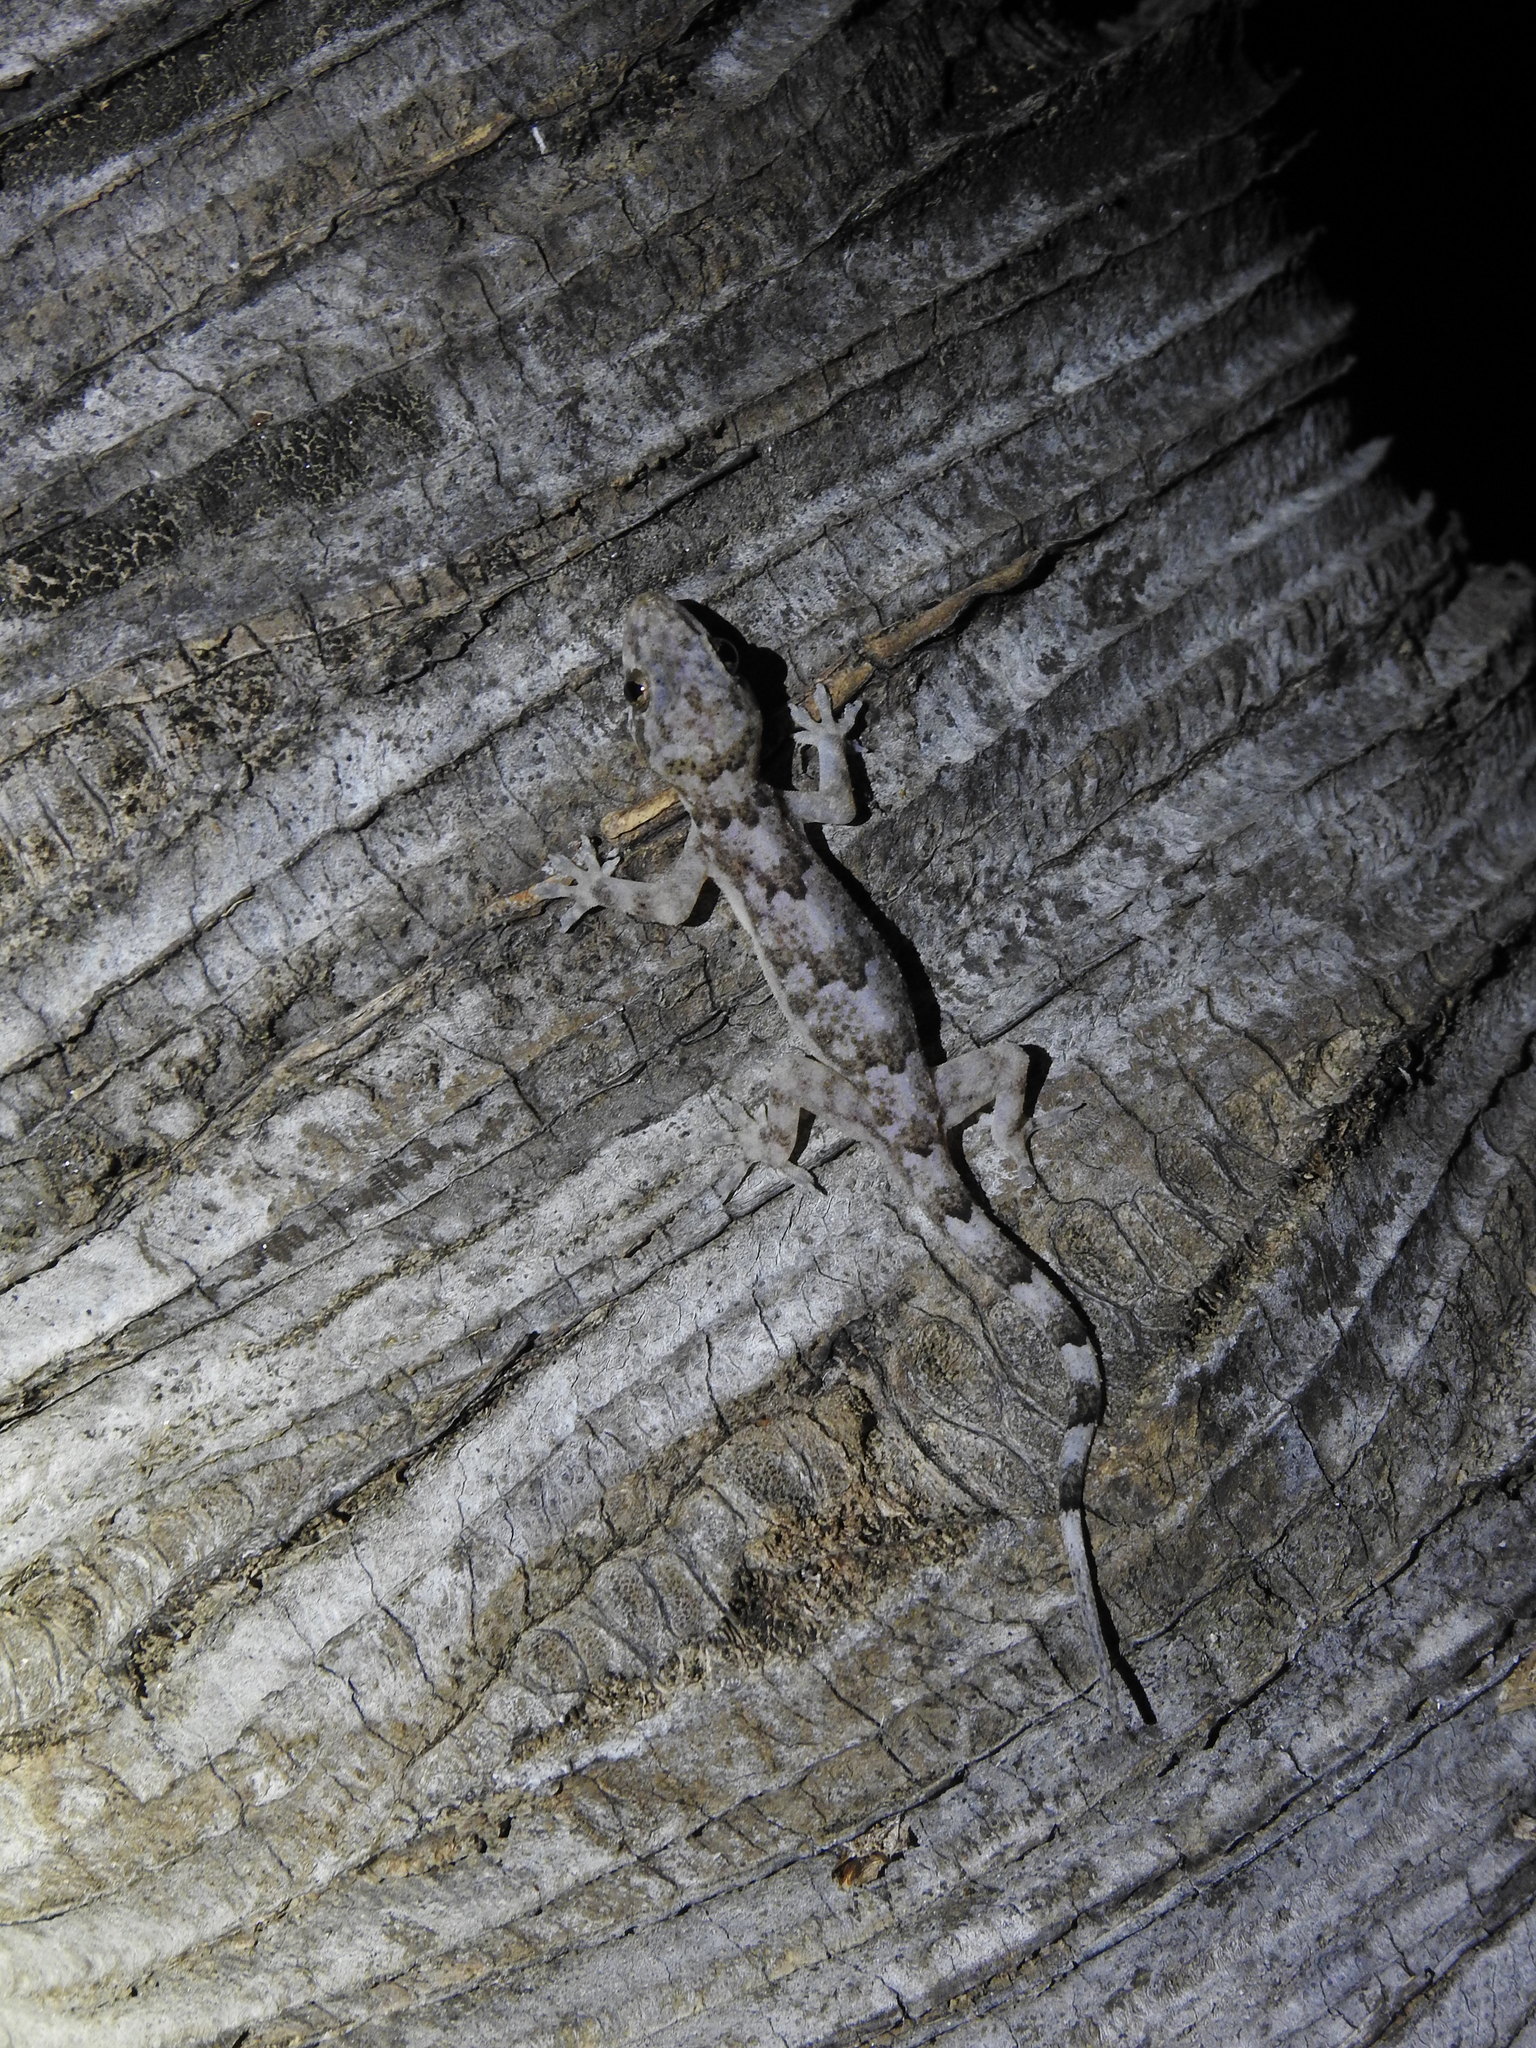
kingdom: Animalia
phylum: Chordata
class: Squamata
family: Gekkonidae
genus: Hemidactylus
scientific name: Hemidactylus mabouia
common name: House gecko
